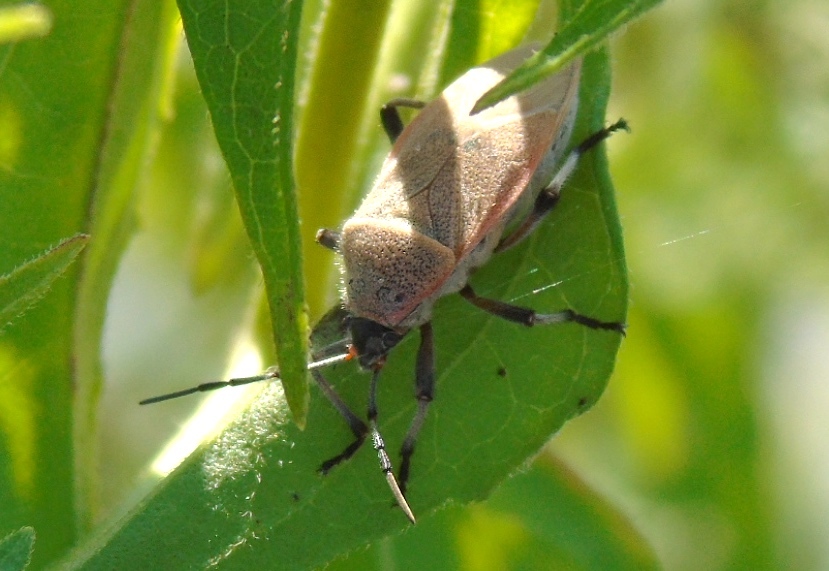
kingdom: Animalia
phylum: Arthropoda
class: Insecta
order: Hemiptera
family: Largidae
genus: Largus
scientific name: Largus
